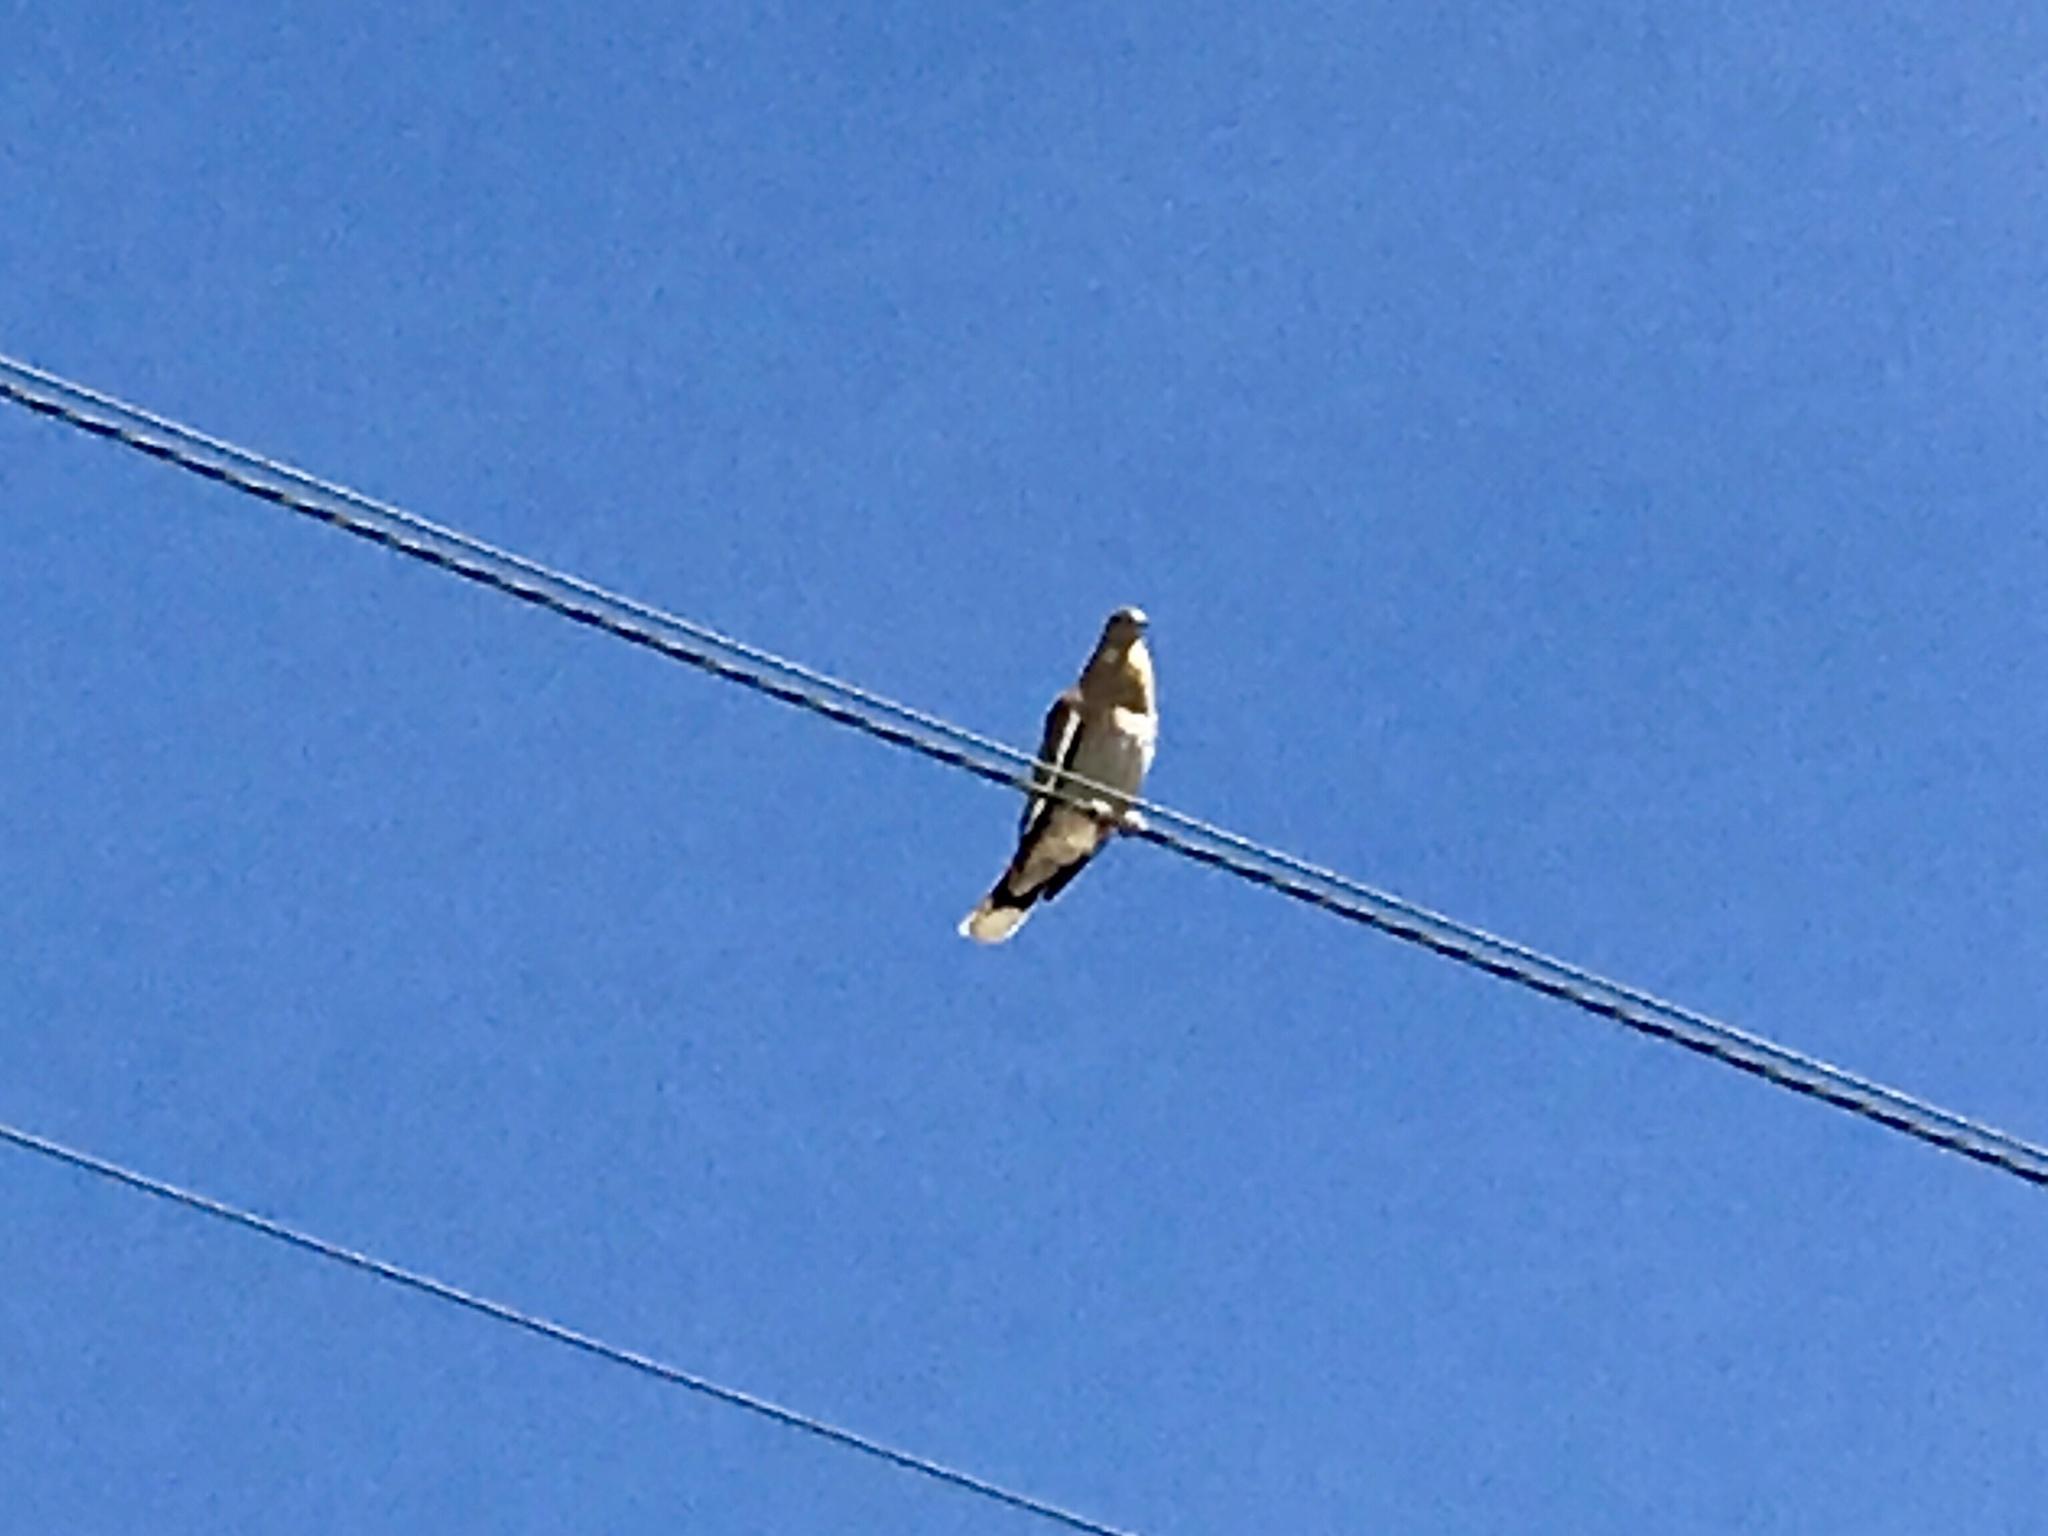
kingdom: Animalia
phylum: Chordata
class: Aves
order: Columbiformes
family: Columbidae
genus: Zenaida
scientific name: Zenaida asiatica
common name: White-winged dove
